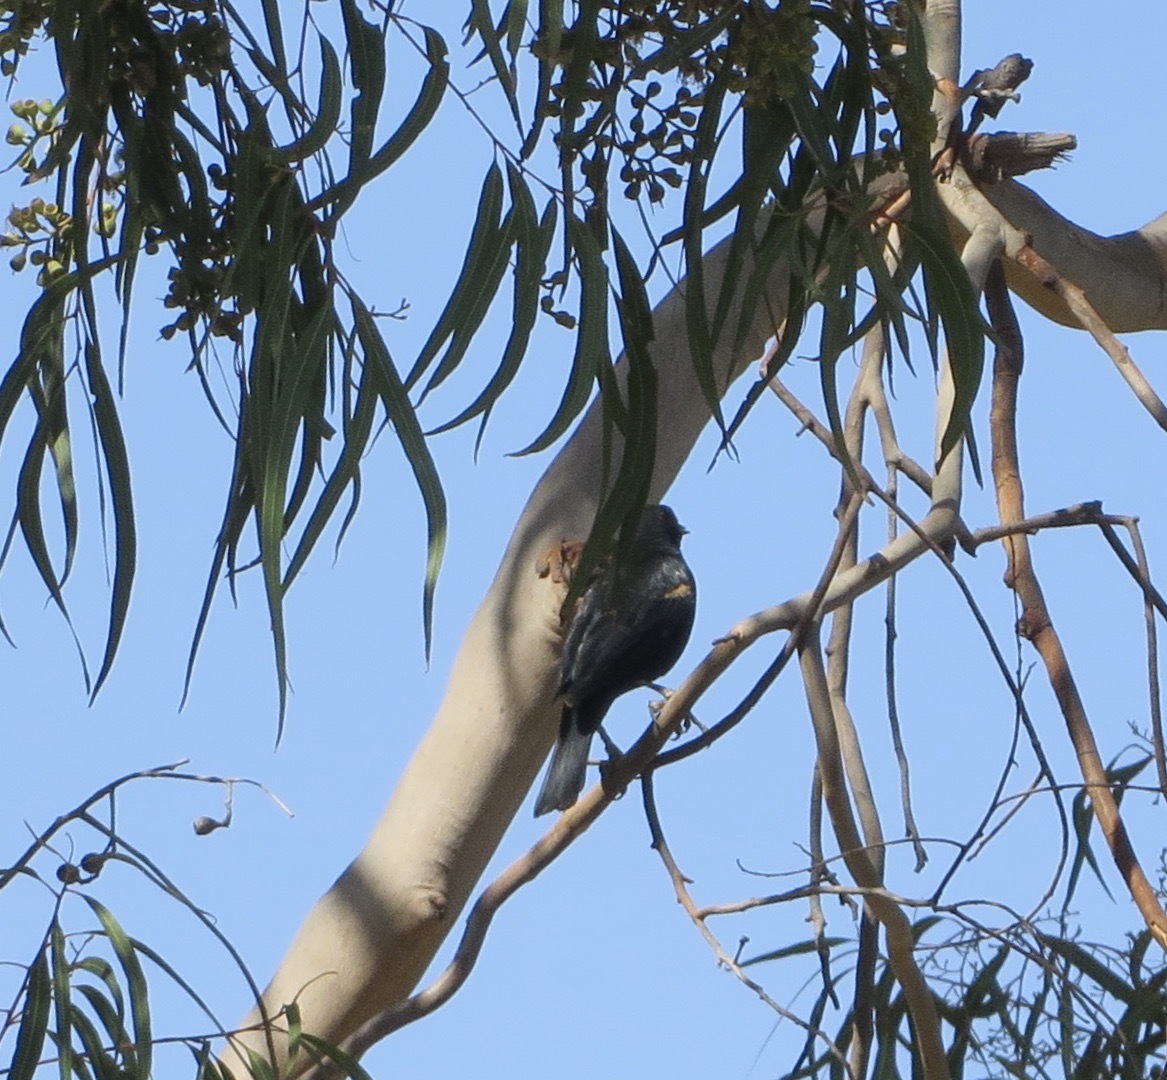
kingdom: Animalia
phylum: Chordata
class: Aves
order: Passeriformes
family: Icteridae
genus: Agelaius
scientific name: Agelaius phoeniceus
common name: Red-winged blackbird
